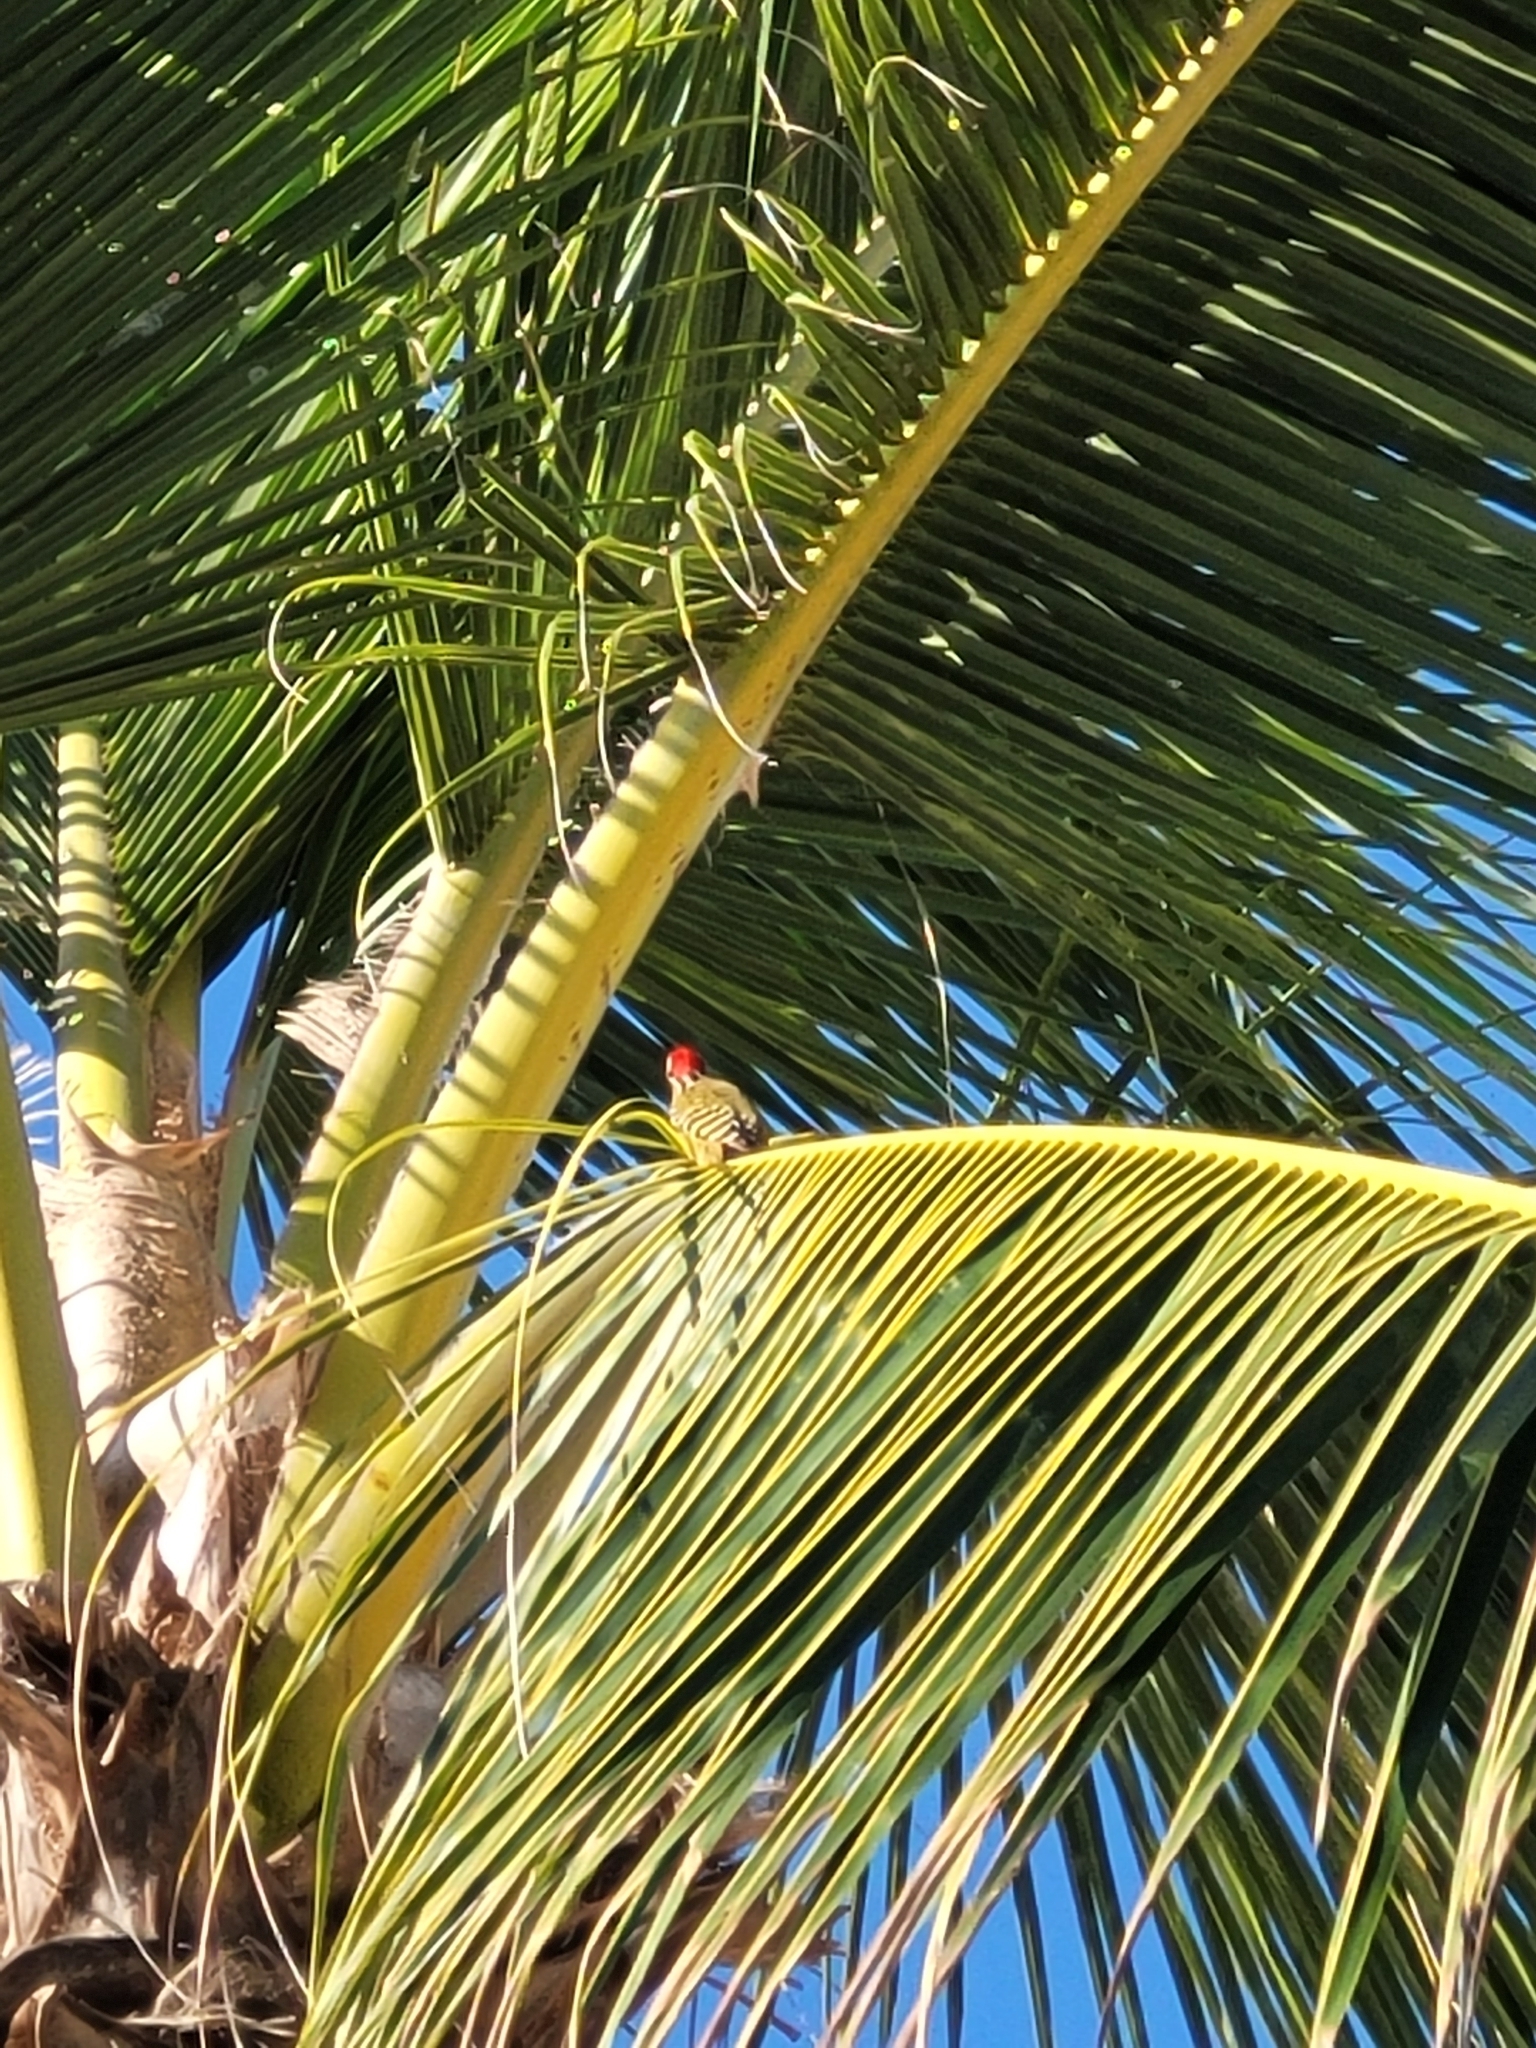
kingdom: Animalia
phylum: Chordata
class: Aves
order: Piciformes
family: Picidae
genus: Melanerpes
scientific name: Melanerpes striatus
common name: Hispaniolan woodpecker
